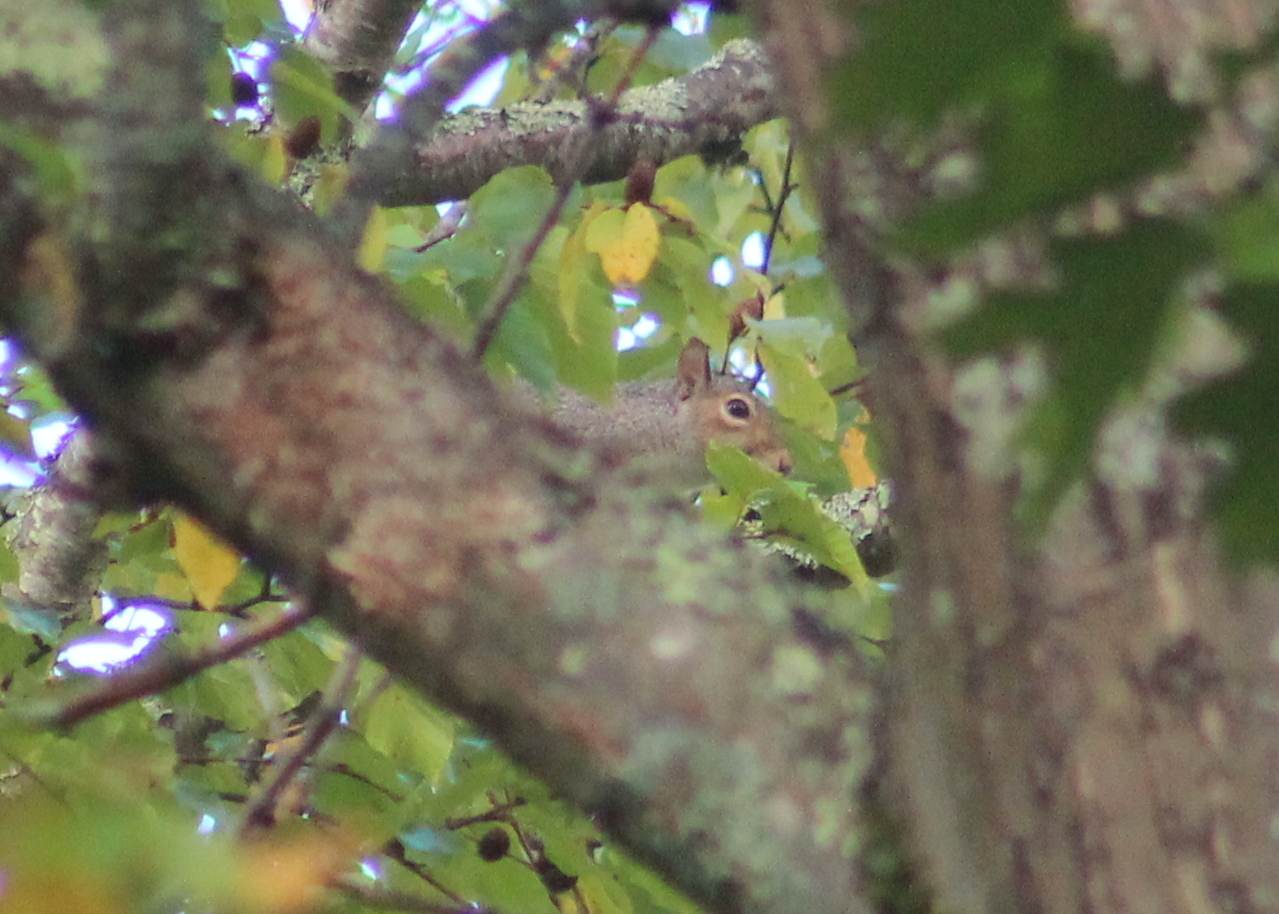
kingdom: Animalia
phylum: Chordata
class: Mammalia
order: Rodentia
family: Sciuridae
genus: Sciurus
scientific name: Sciurus carolinensis
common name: Eastern gray squirrel
